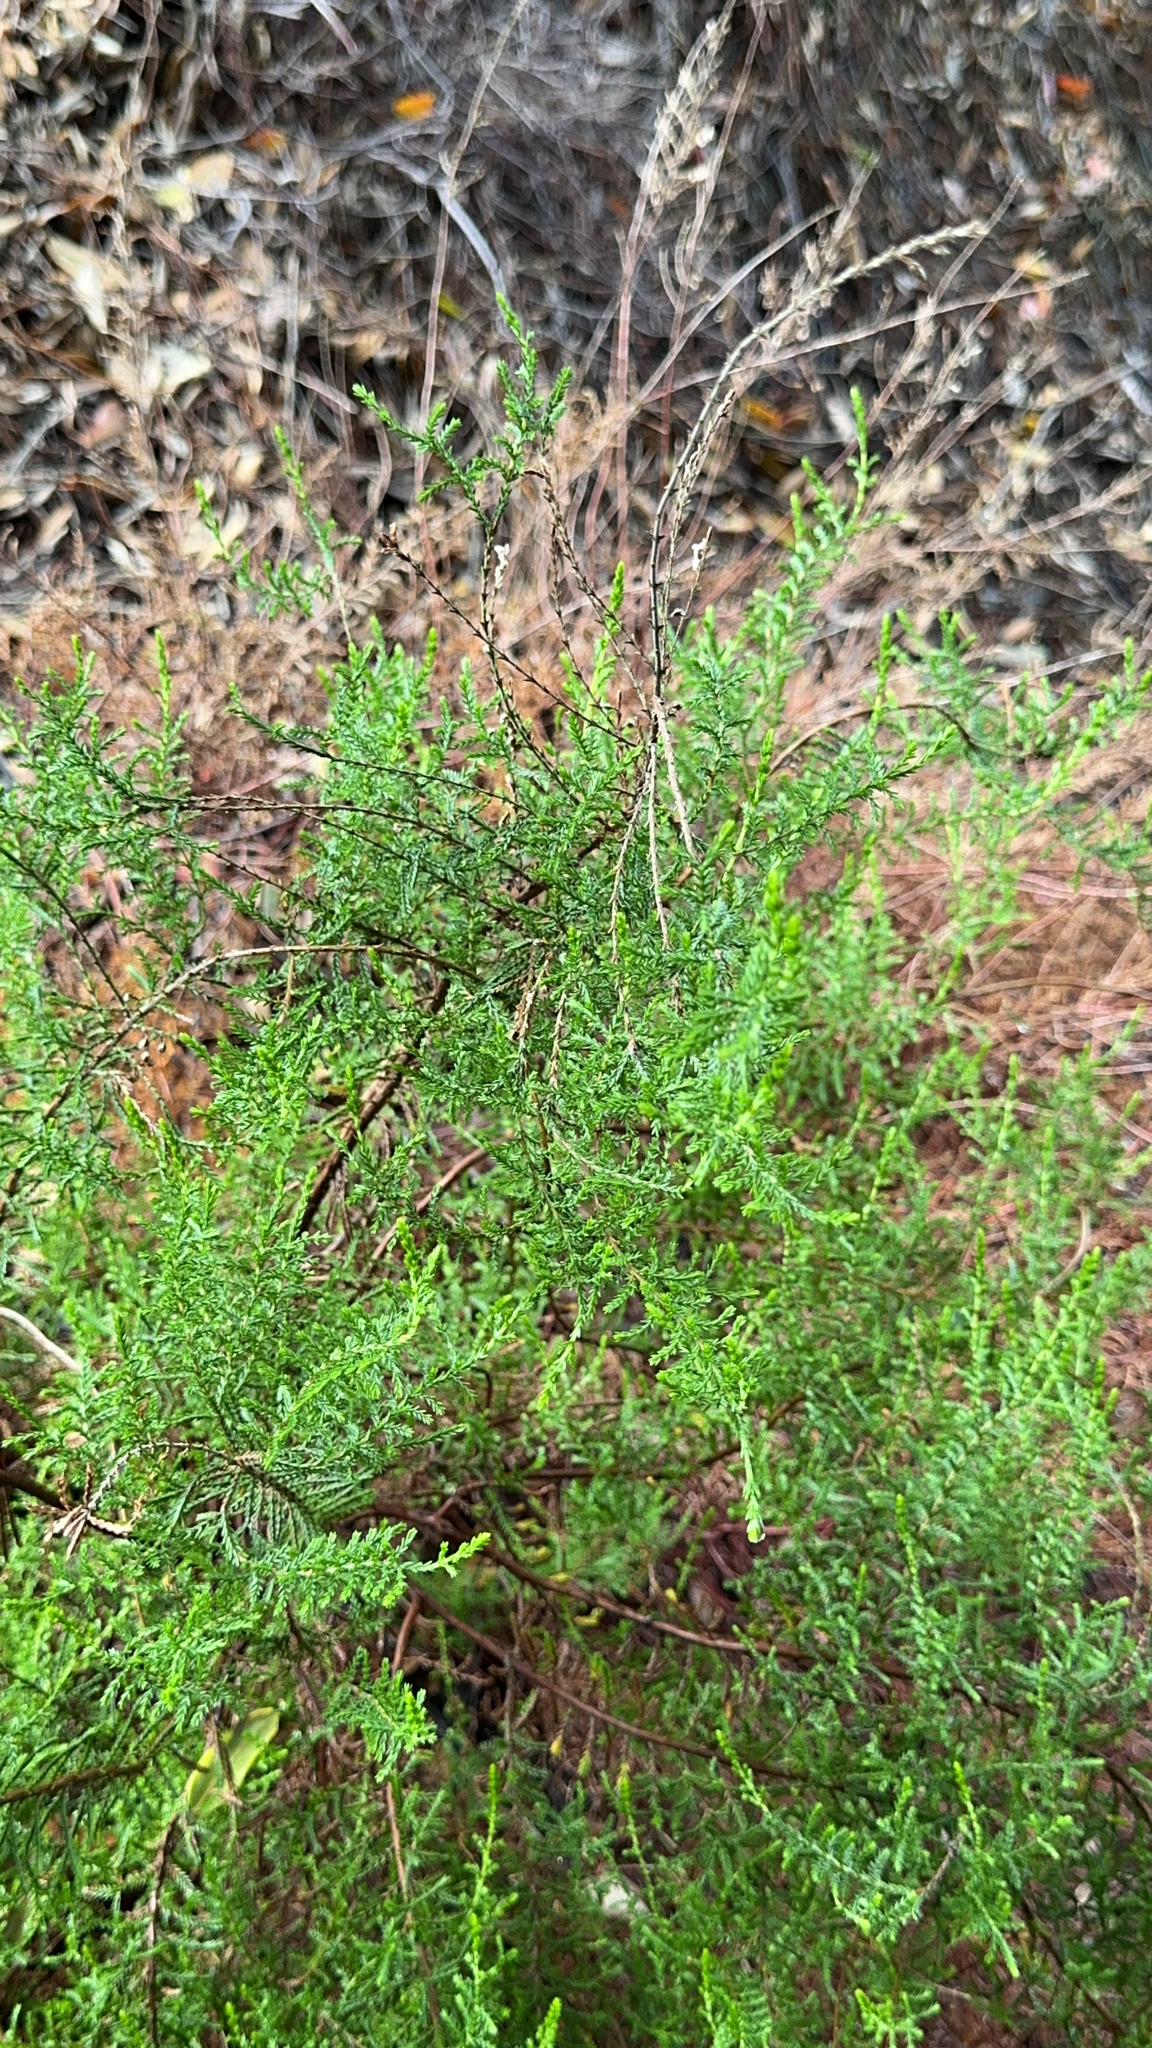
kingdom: Plantae
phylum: Tracheophyta
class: Magnoliopsida
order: Ericales
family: Ericaceae
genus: Calluna
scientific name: Calluna vulgaris
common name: Heather
